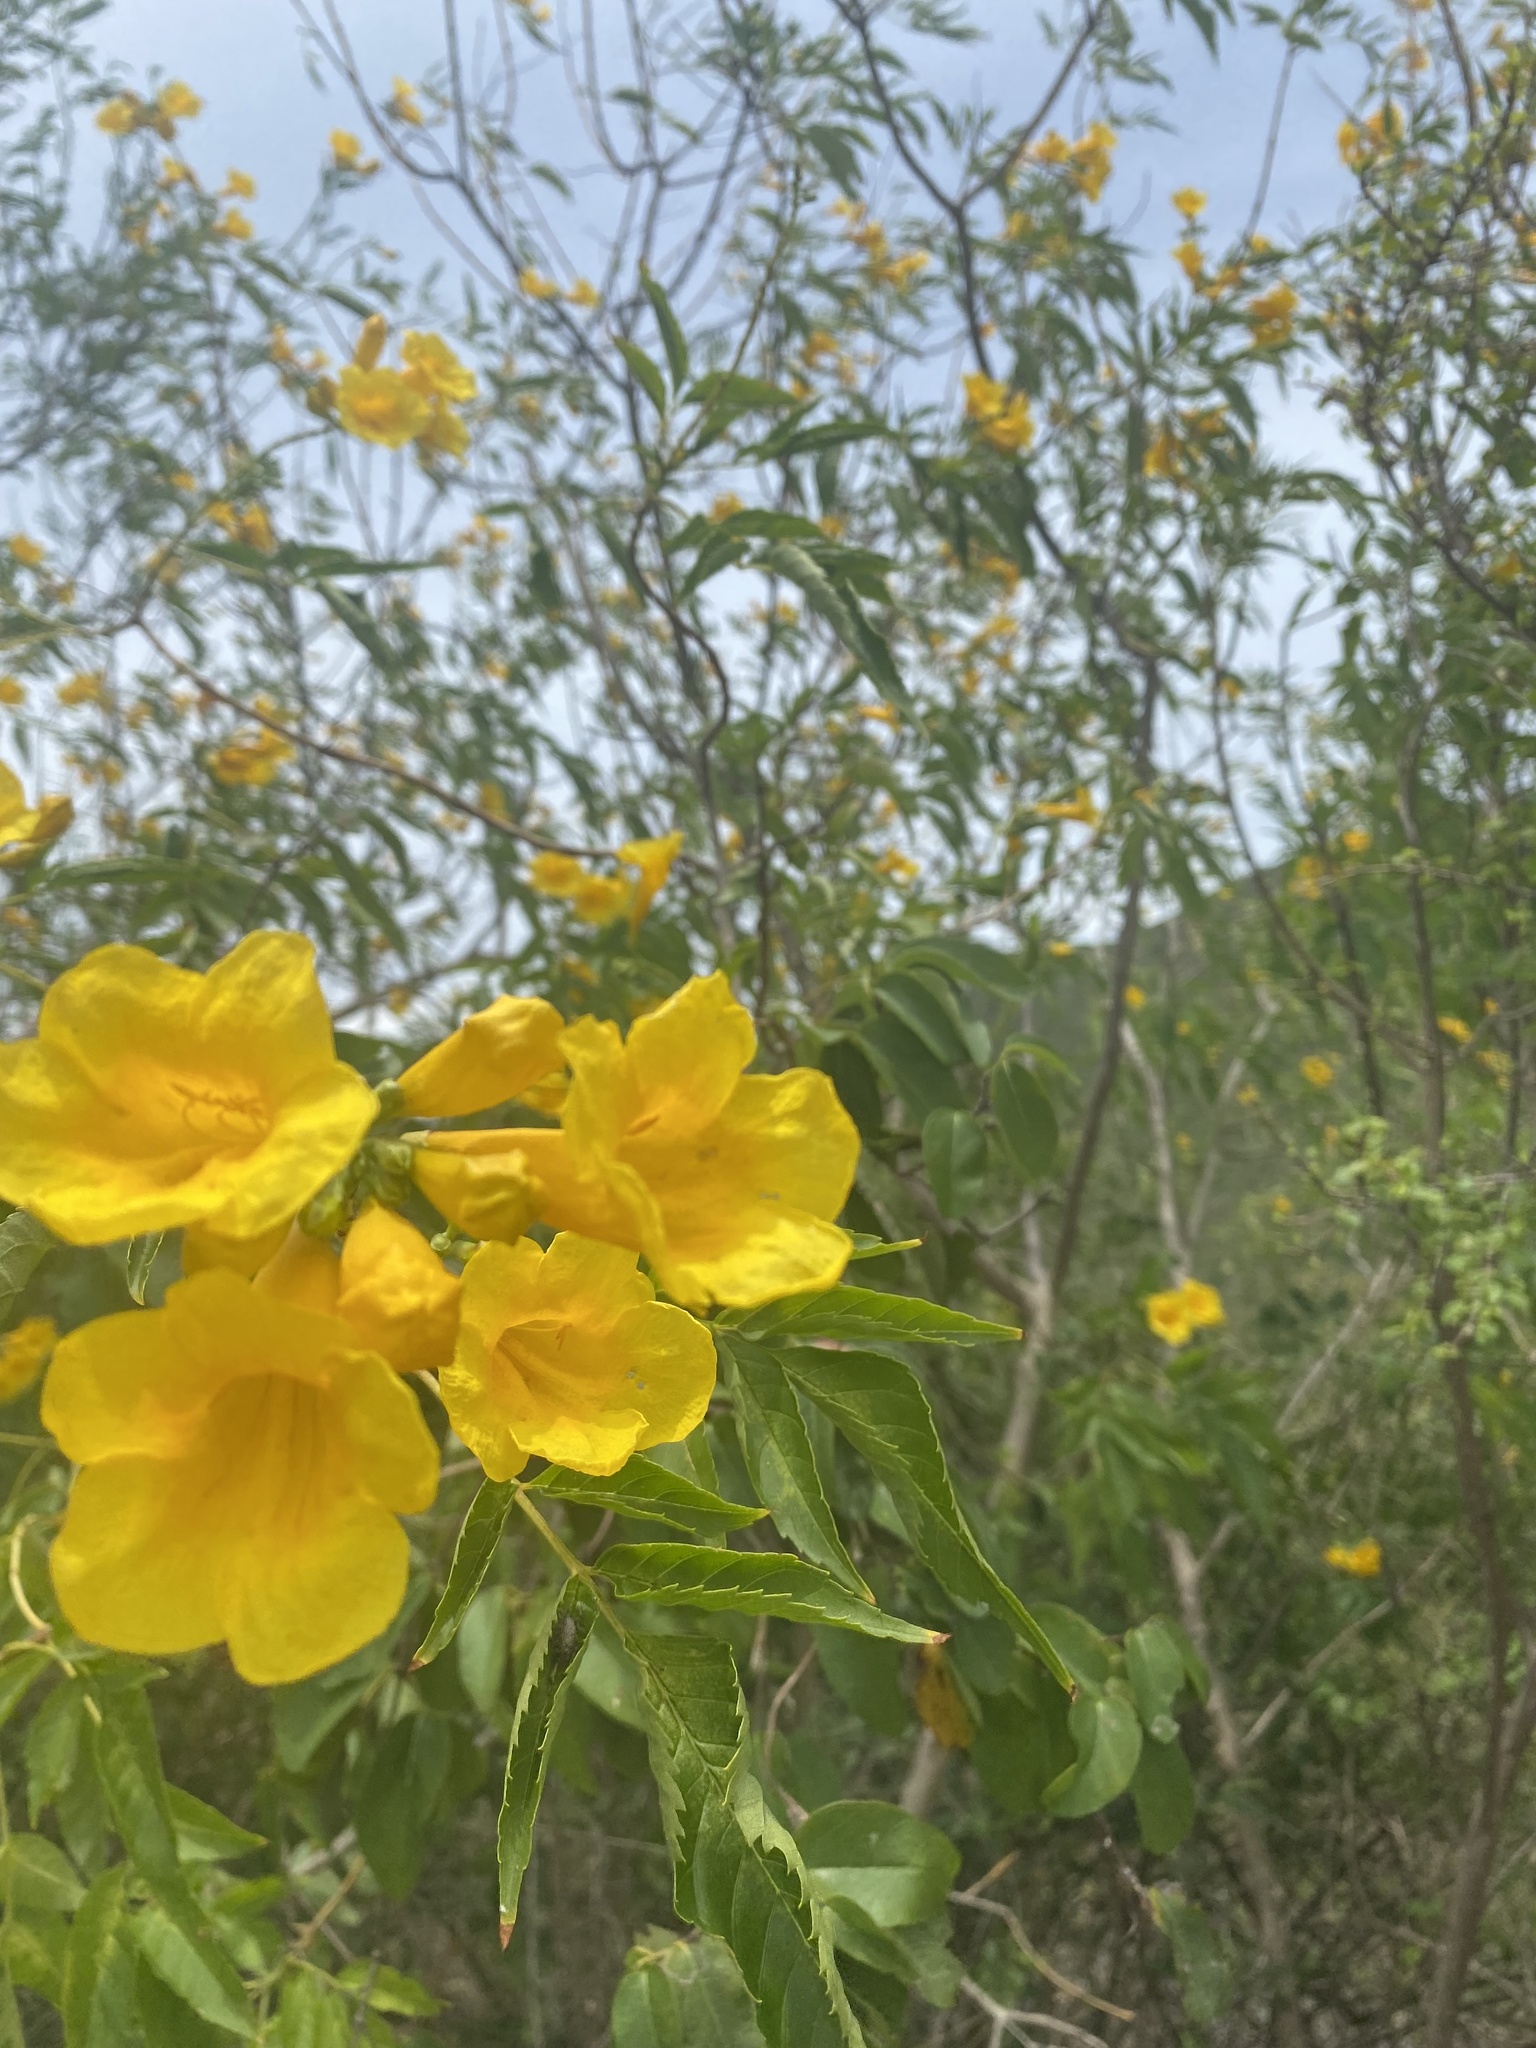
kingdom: Plantae
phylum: Tracheophyta
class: Magnoliopsida
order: Lamiales
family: Bignoniaceae
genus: Tecoma
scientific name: Tecoma stans
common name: Yellow trumpetbush
